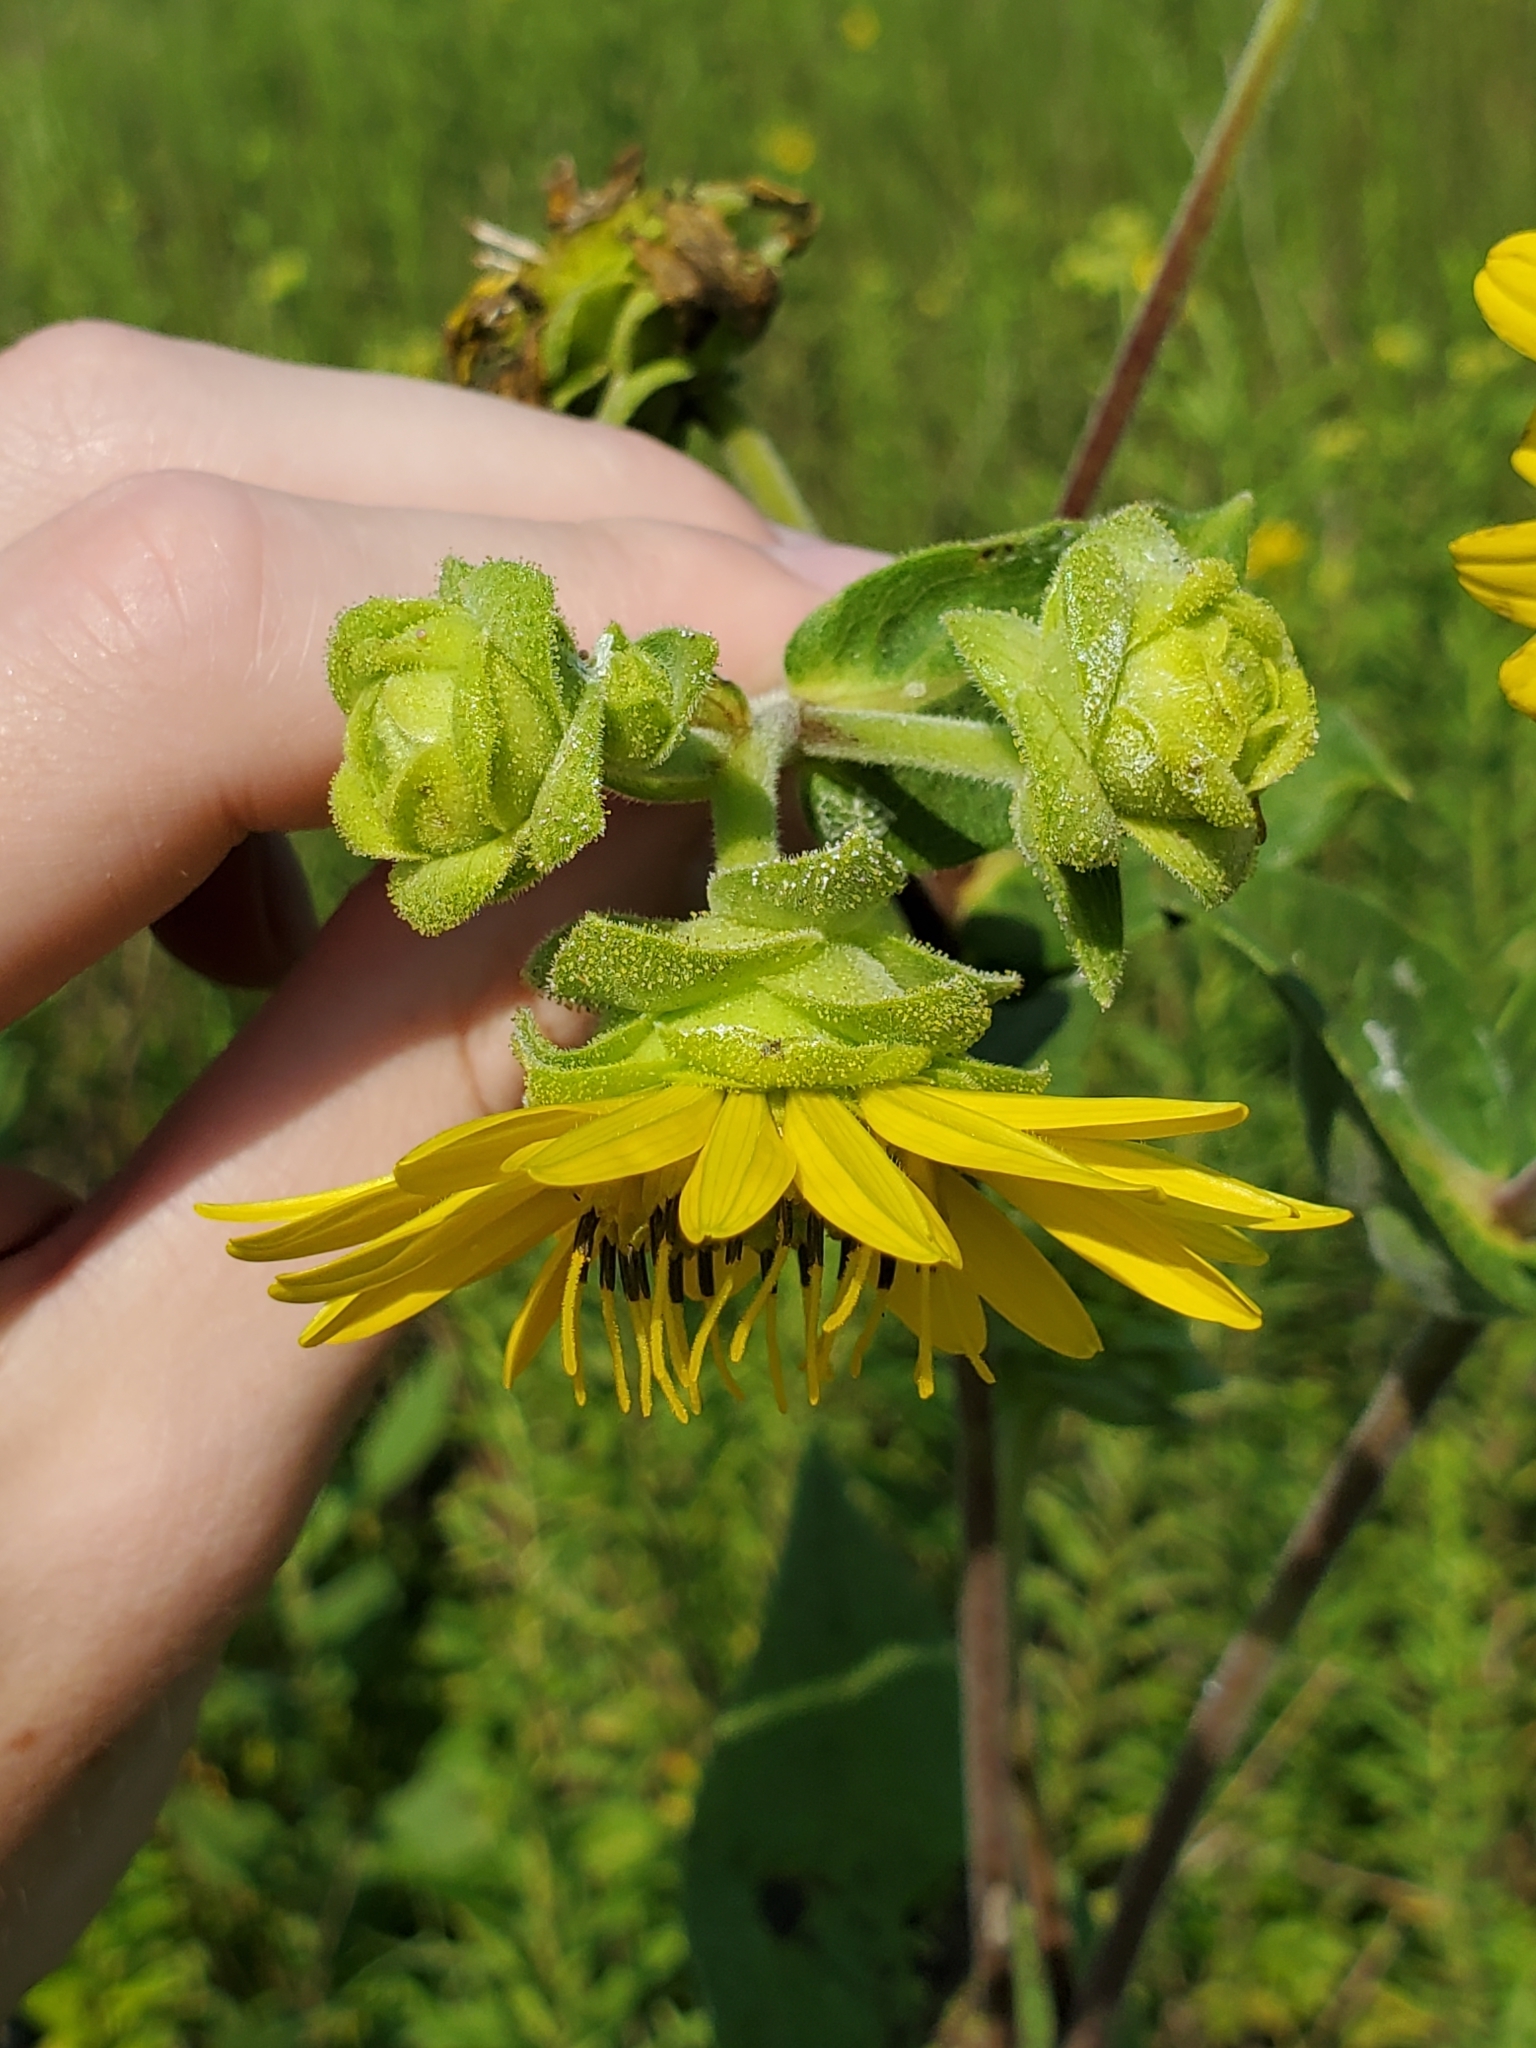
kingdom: Plantae
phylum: Tracheophyta
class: Magnoliopsida
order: Asterales
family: Asteraceae
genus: Silphium
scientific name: Silphium integrifolium
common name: Whole-leaf rosinweed
